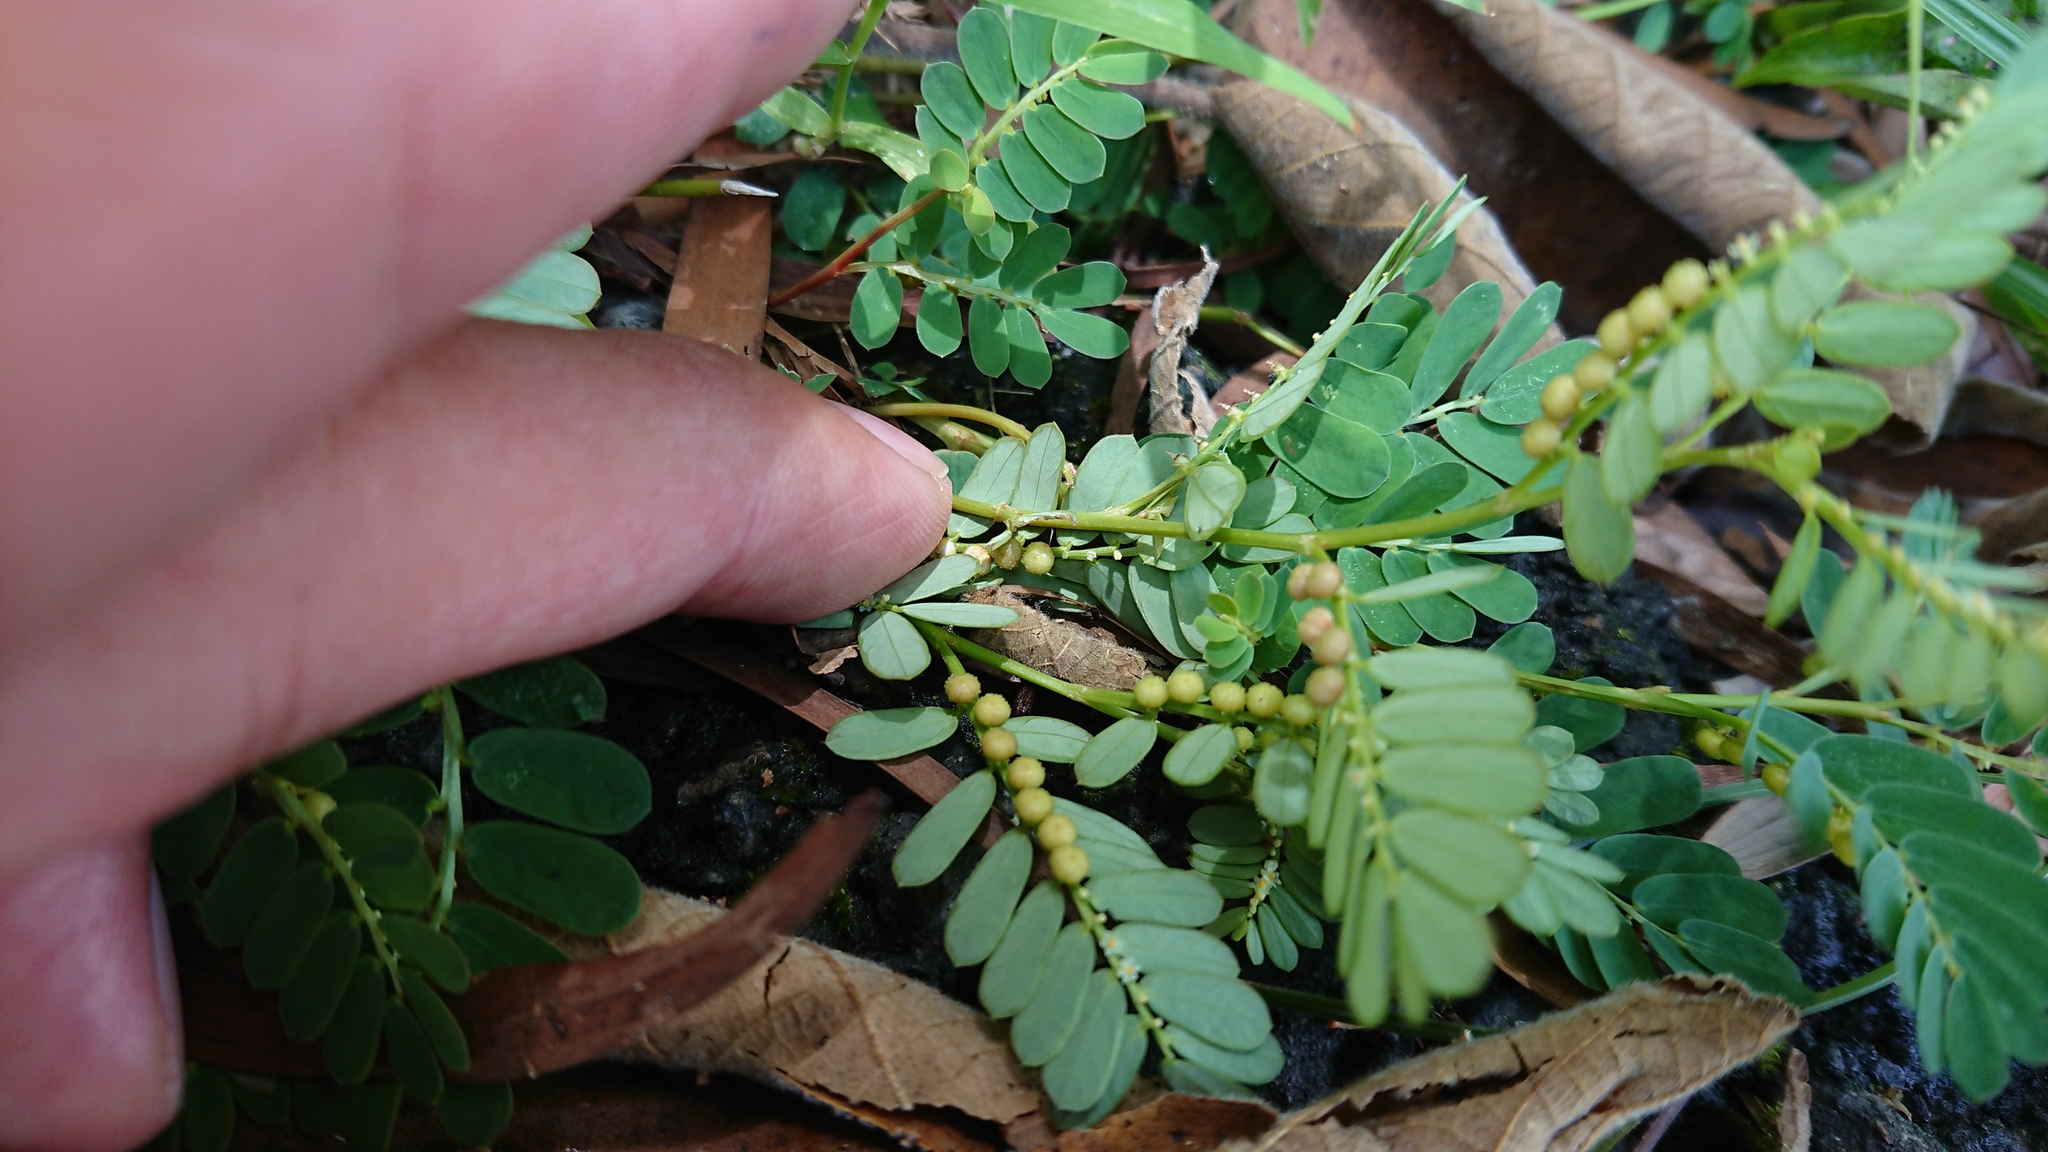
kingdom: Plantae
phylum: Tracheophyta
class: Magnoliopsida
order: Malpighiales
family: Phyllanthaceae
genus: Phyllanthus
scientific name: Phyllanthus urinaria
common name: Chamber bitter
